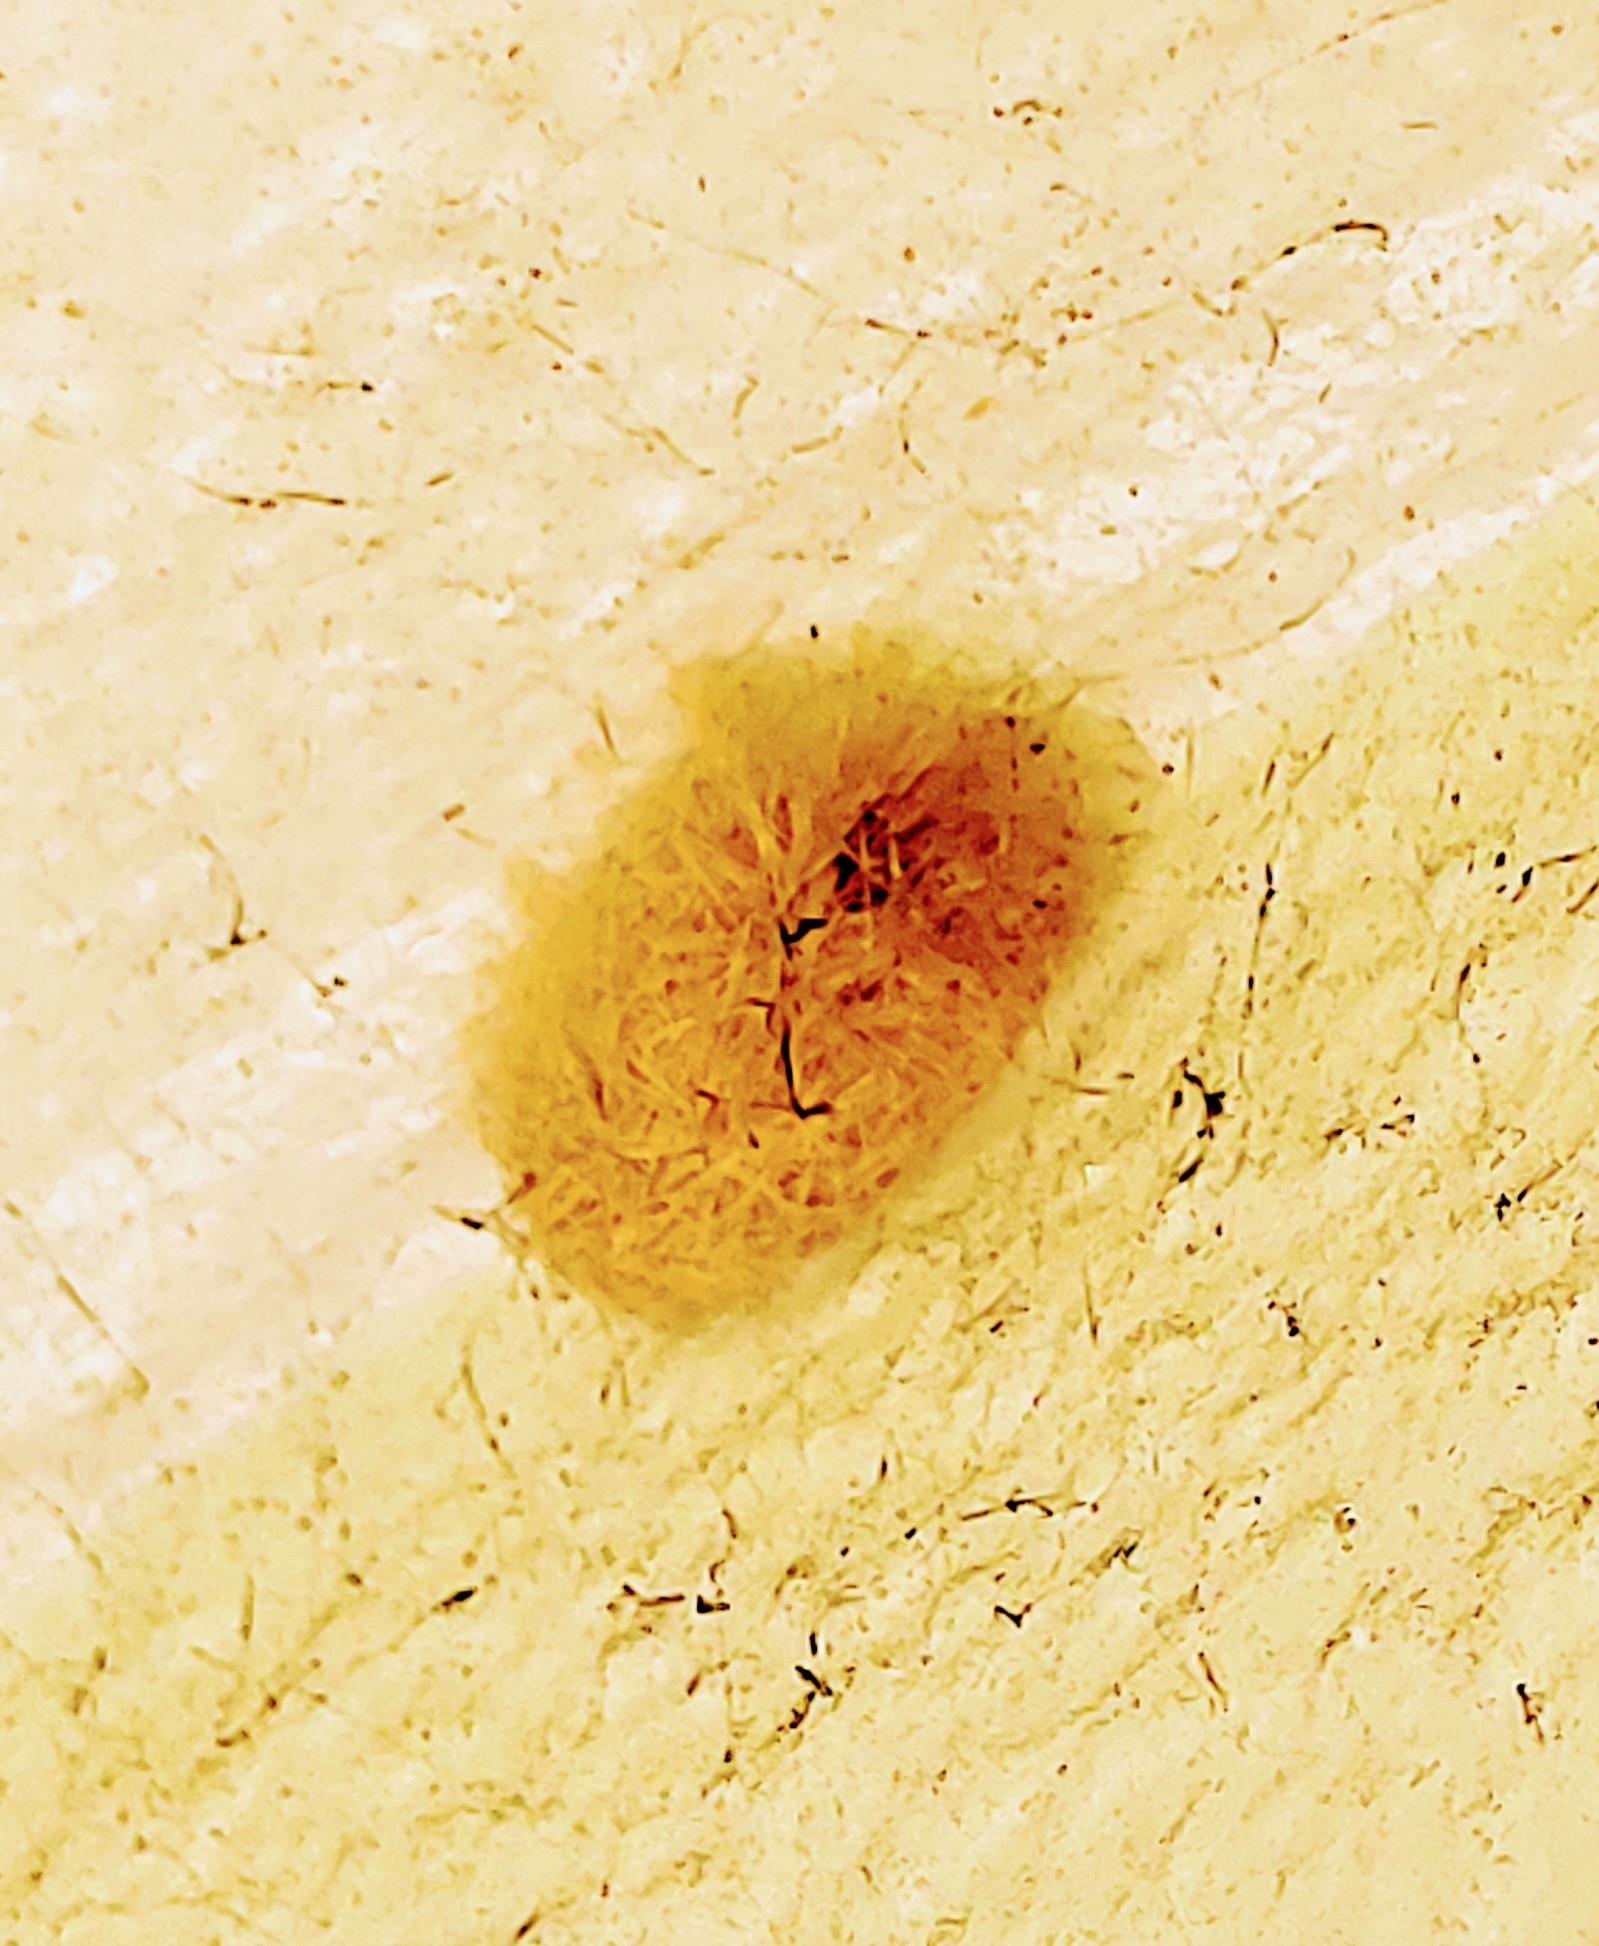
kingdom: Animalia
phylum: Arthropoda
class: Insecta
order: Lepidoptera
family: Erebidae
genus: Lymire
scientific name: Lymire edwardsii
